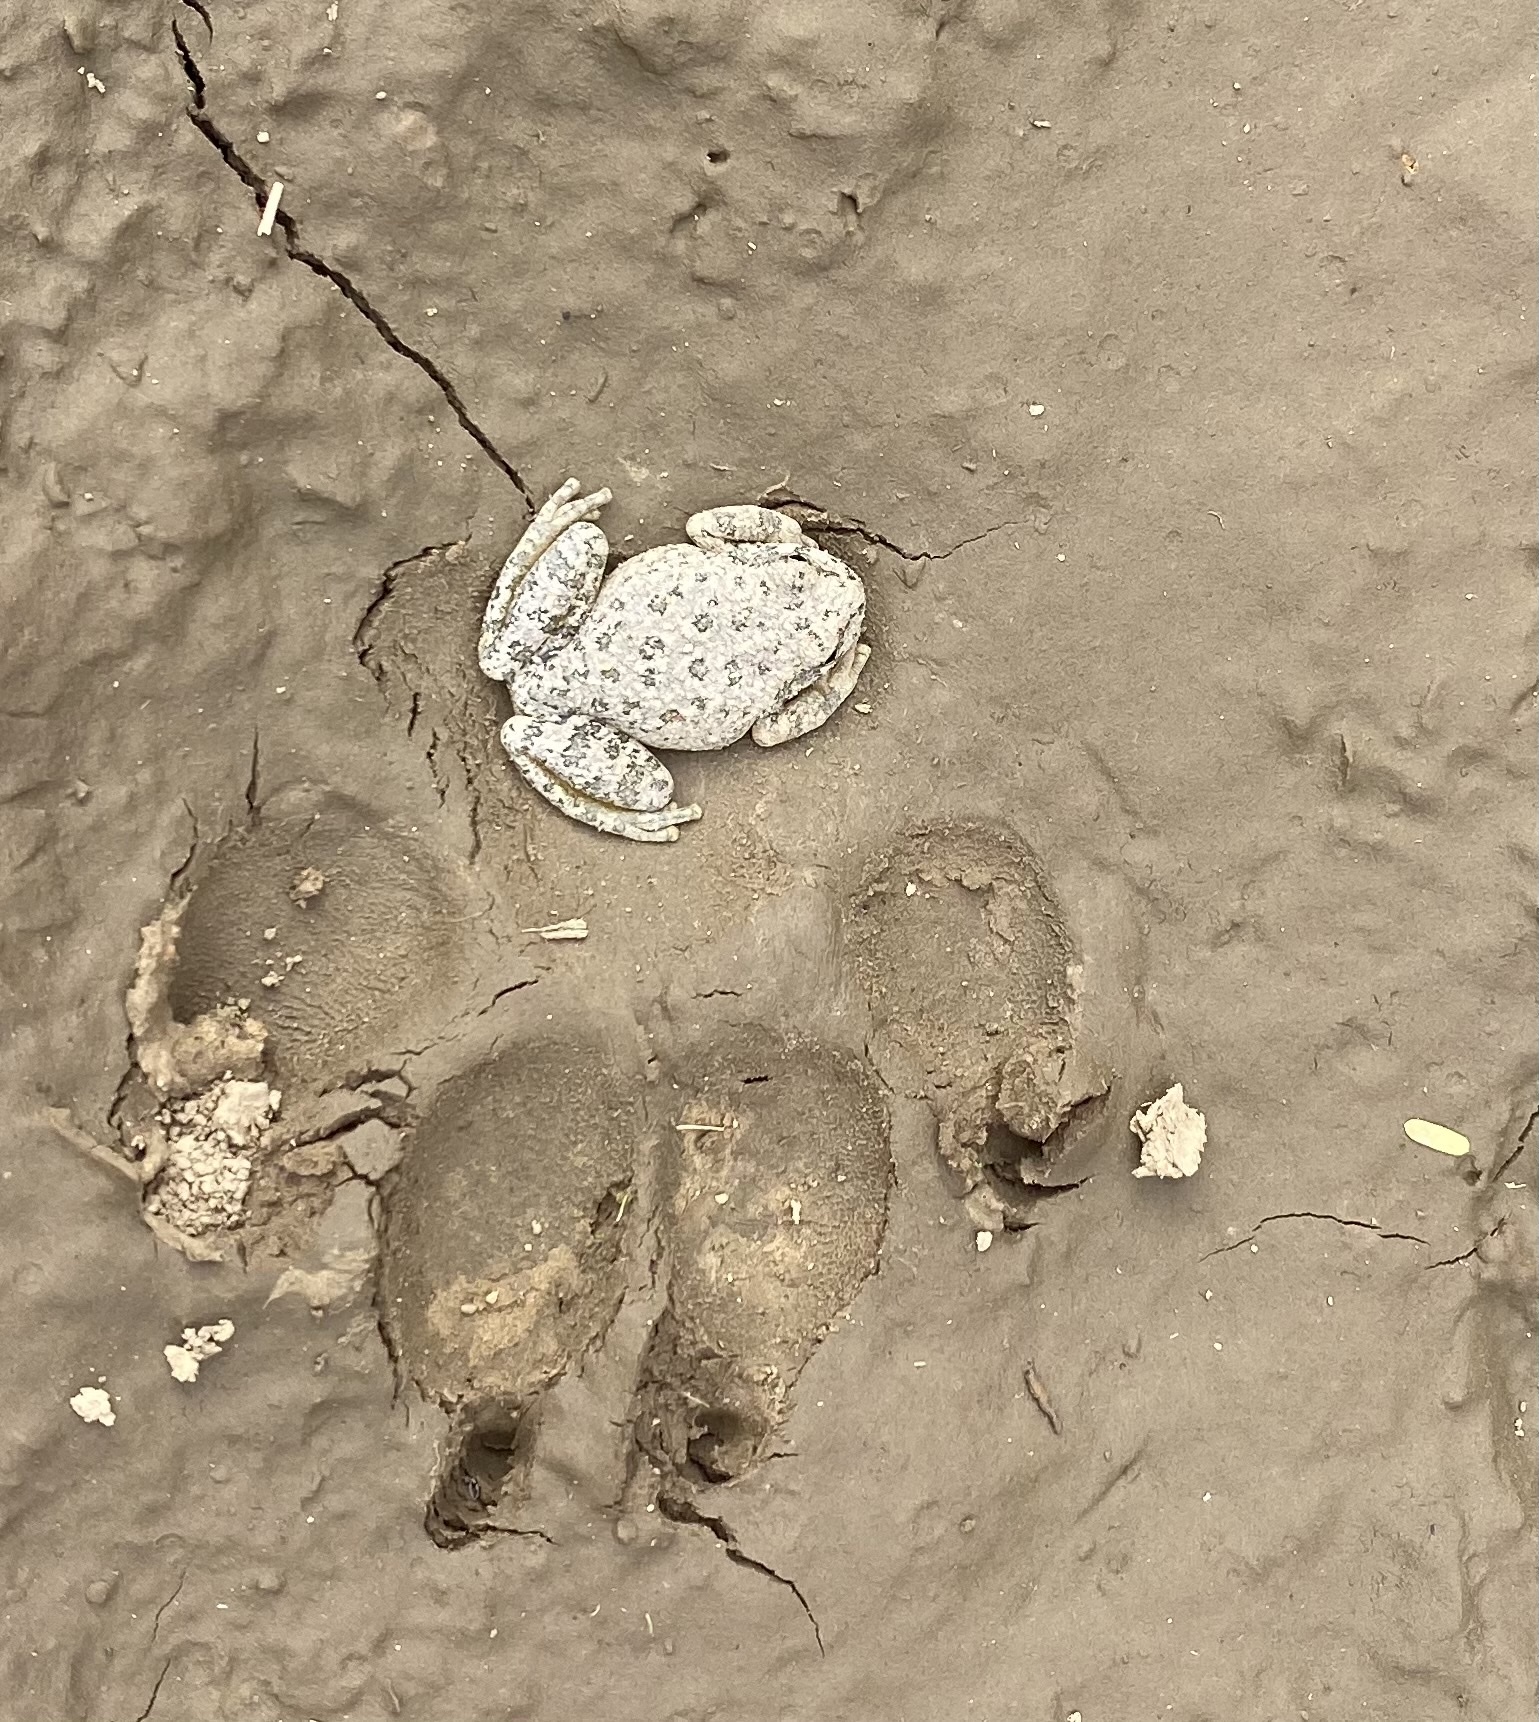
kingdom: Animalia
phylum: Chordata
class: Amphibia
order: Anura
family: Hylidae
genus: Dryophytes
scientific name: Dryophytes arenicolor
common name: Canyon treefrog
